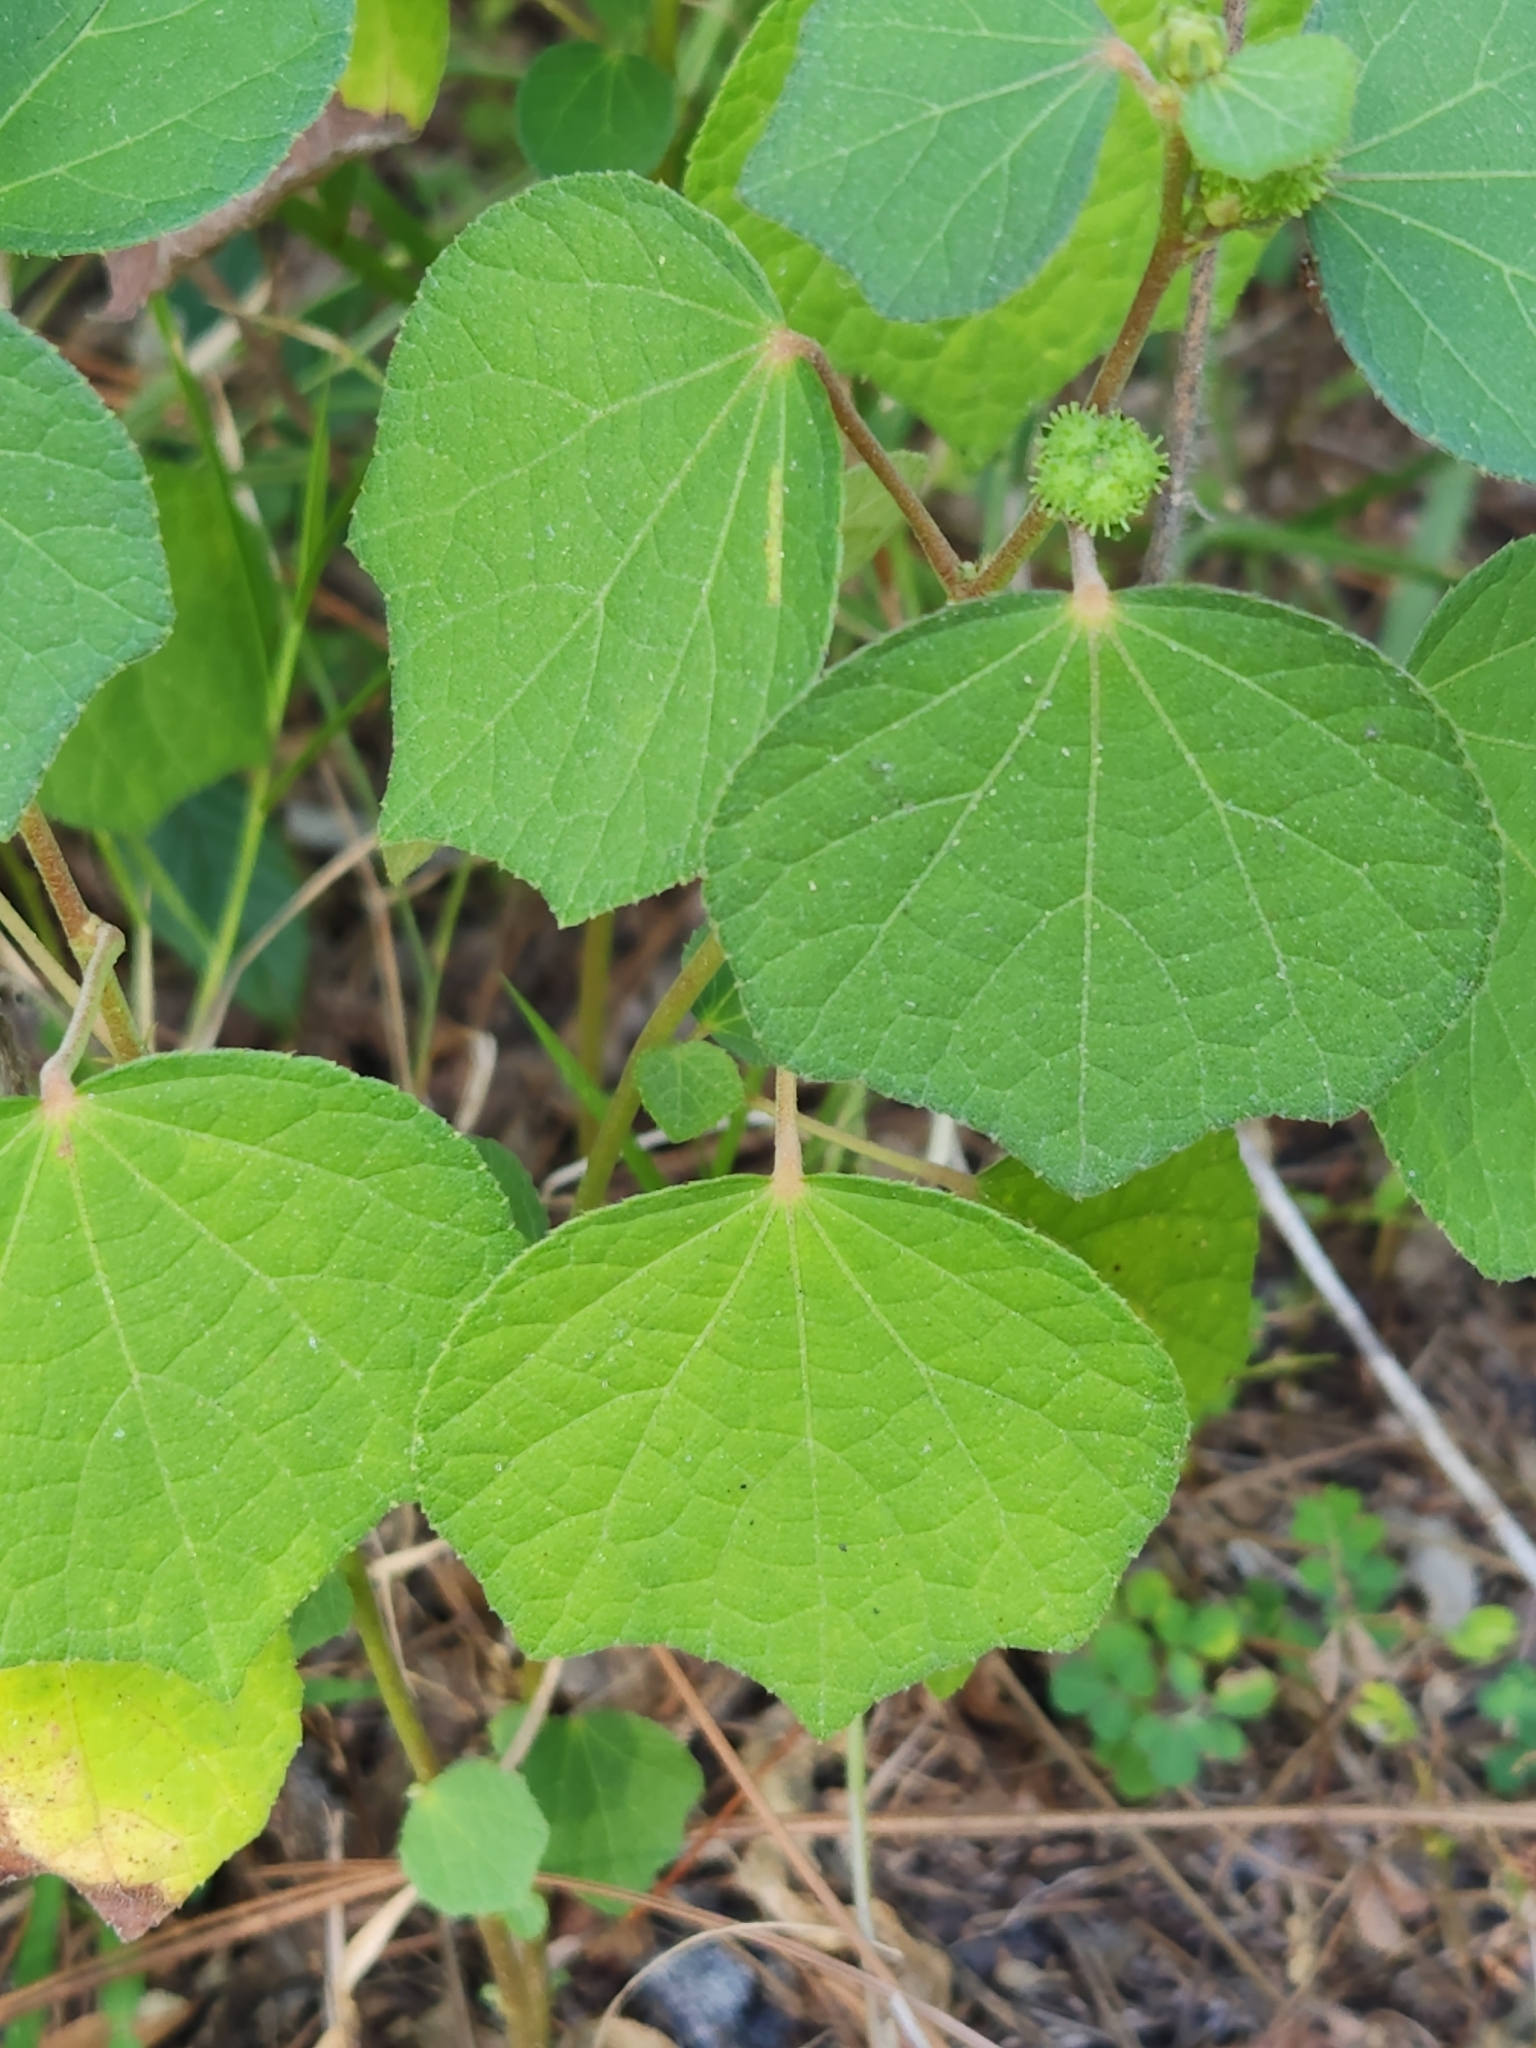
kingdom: Plantae
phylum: Tracheophyta
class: Magnoliopsida
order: Malvales
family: Malvaceae
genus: Urena
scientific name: Urena lobata
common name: Caesarweed
